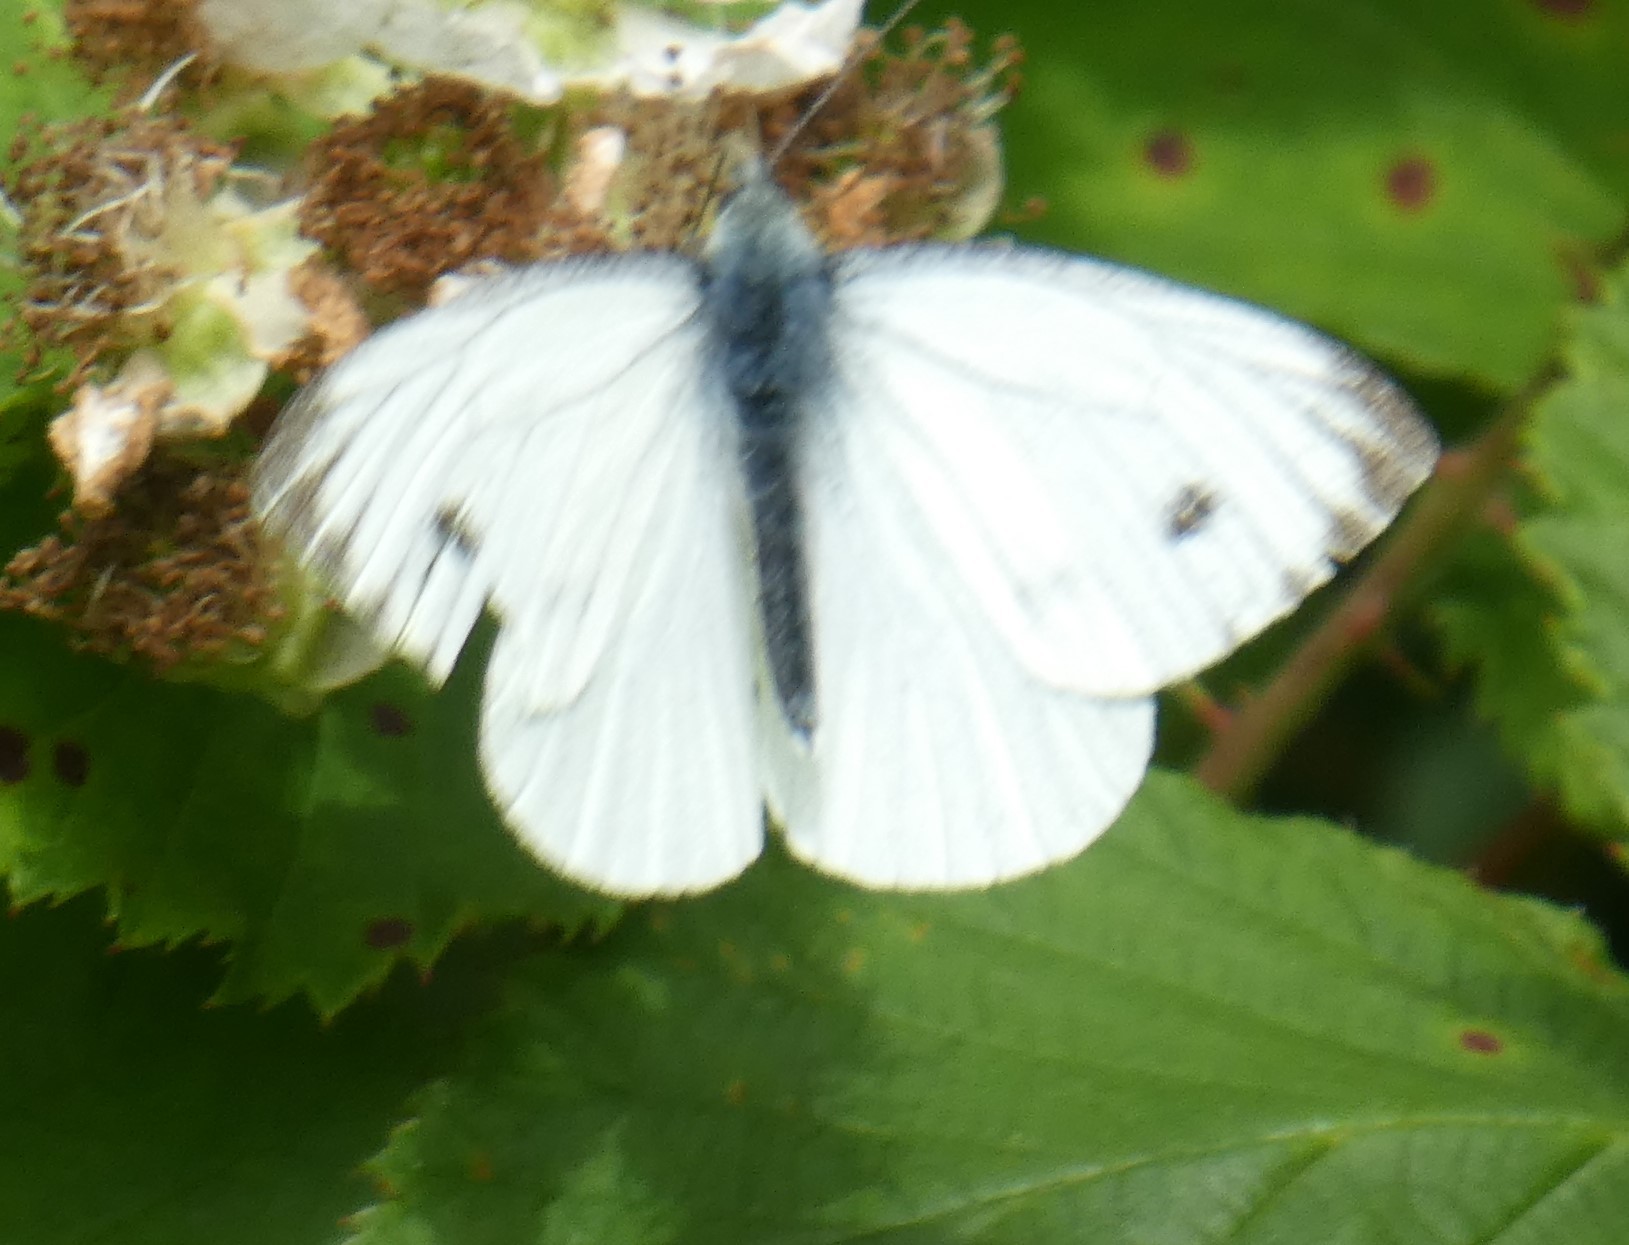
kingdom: Animalia
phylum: Arthropoda
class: Insecta
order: Lepidoptera
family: Pieridae
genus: Pieris
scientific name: Pieris napi
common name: Green-veined white
